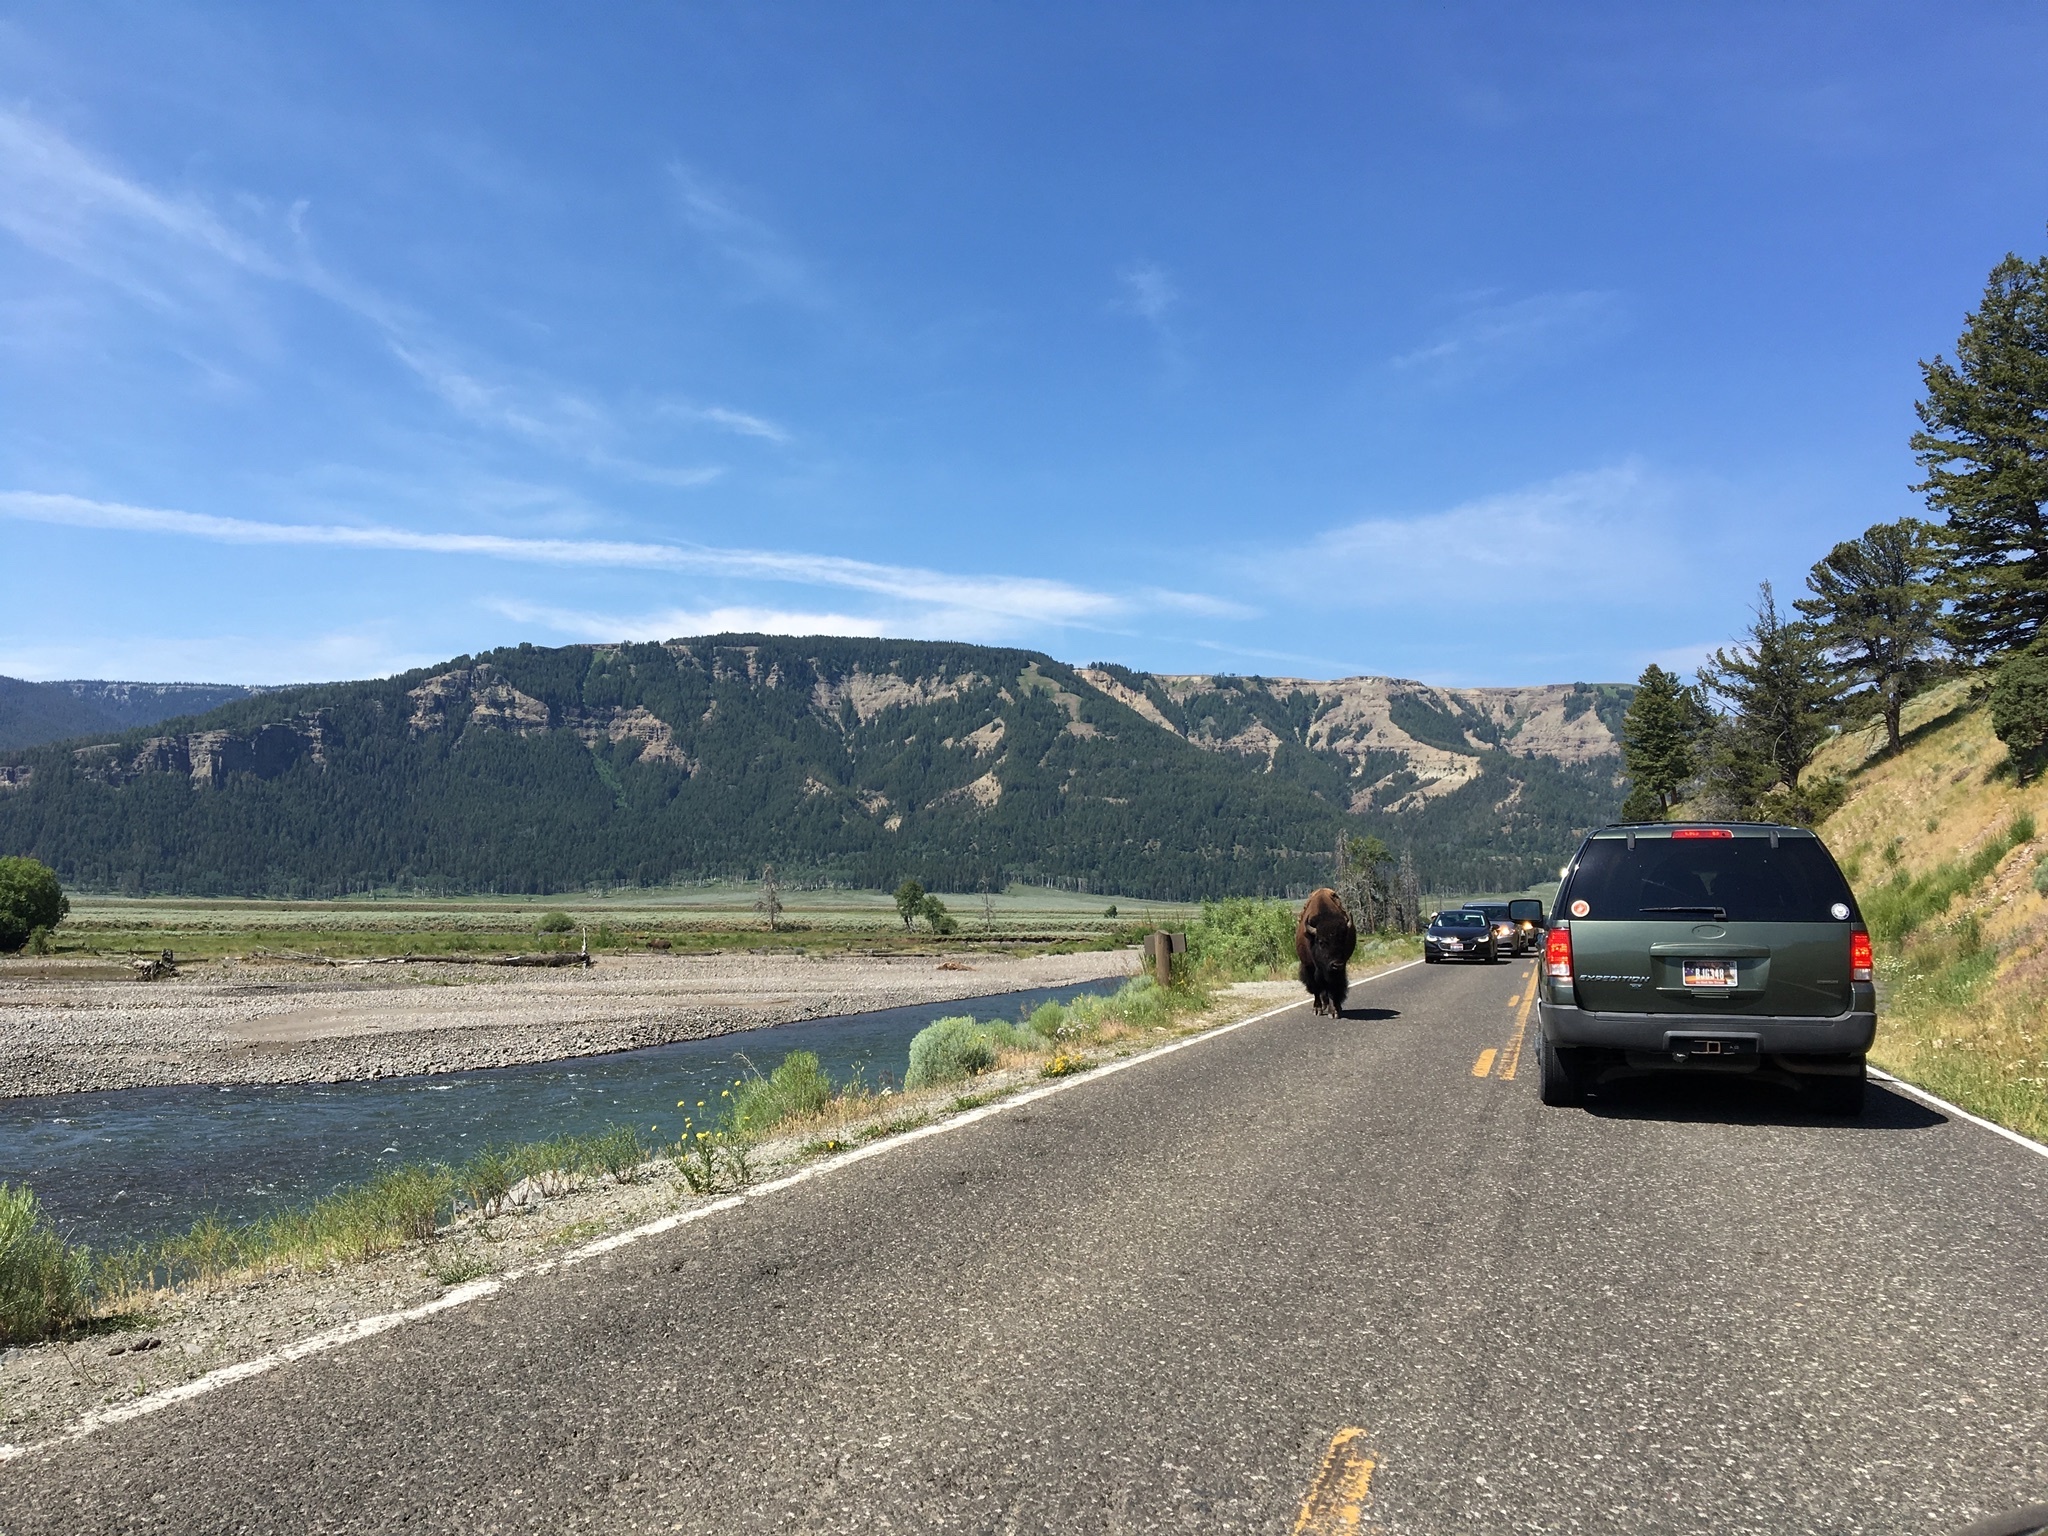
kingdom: Animalia
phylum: Chordata
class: Mammalia
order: Artiodactyla
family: Bovidae
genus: Bison
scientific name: Bison bison
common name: American bison
